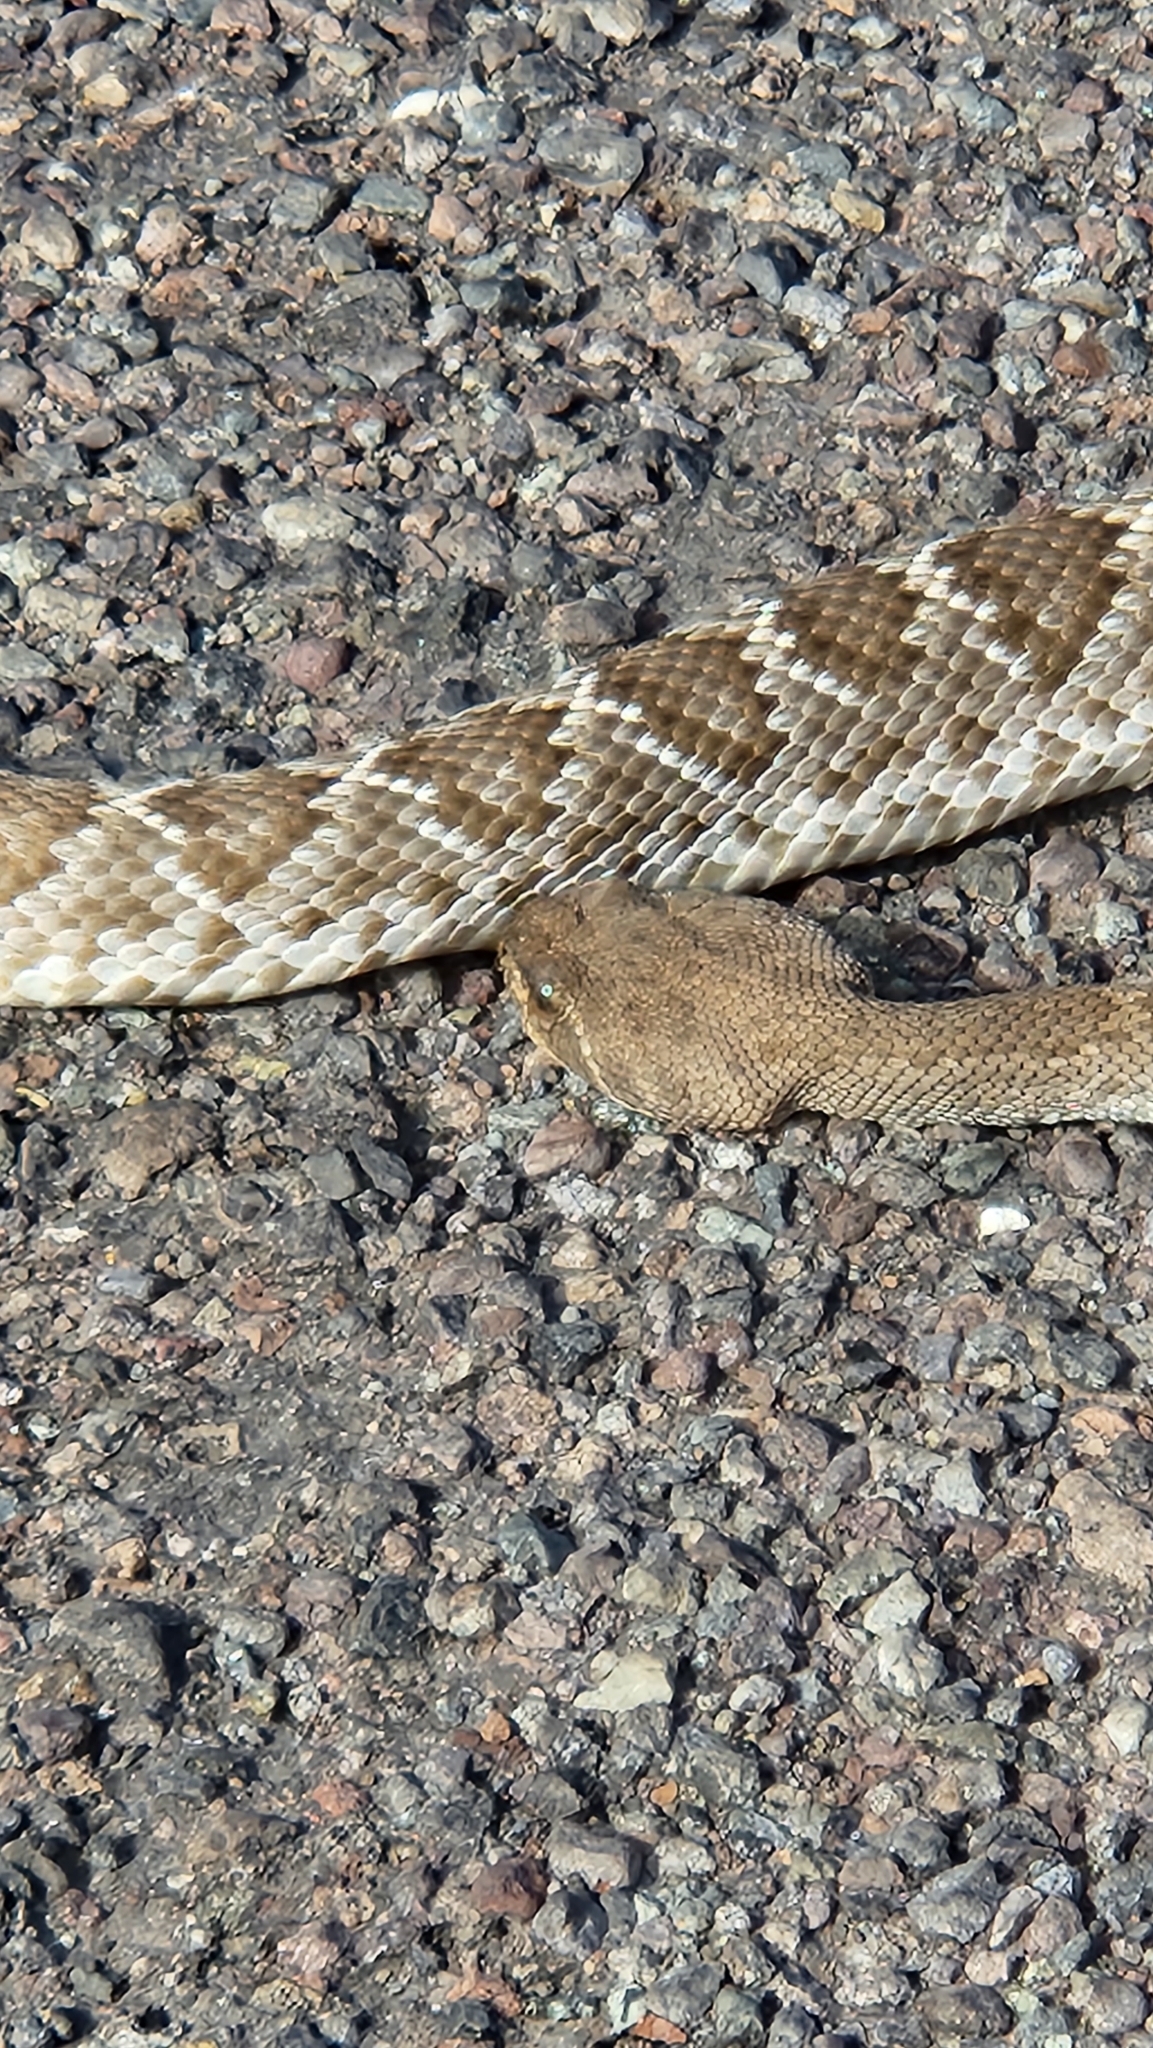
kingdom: Animalia
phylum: Chordata
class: Squamata
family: Viperidae
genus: Crotalus
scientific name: Crotalus ruber
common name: Red diamond rattlesnake
